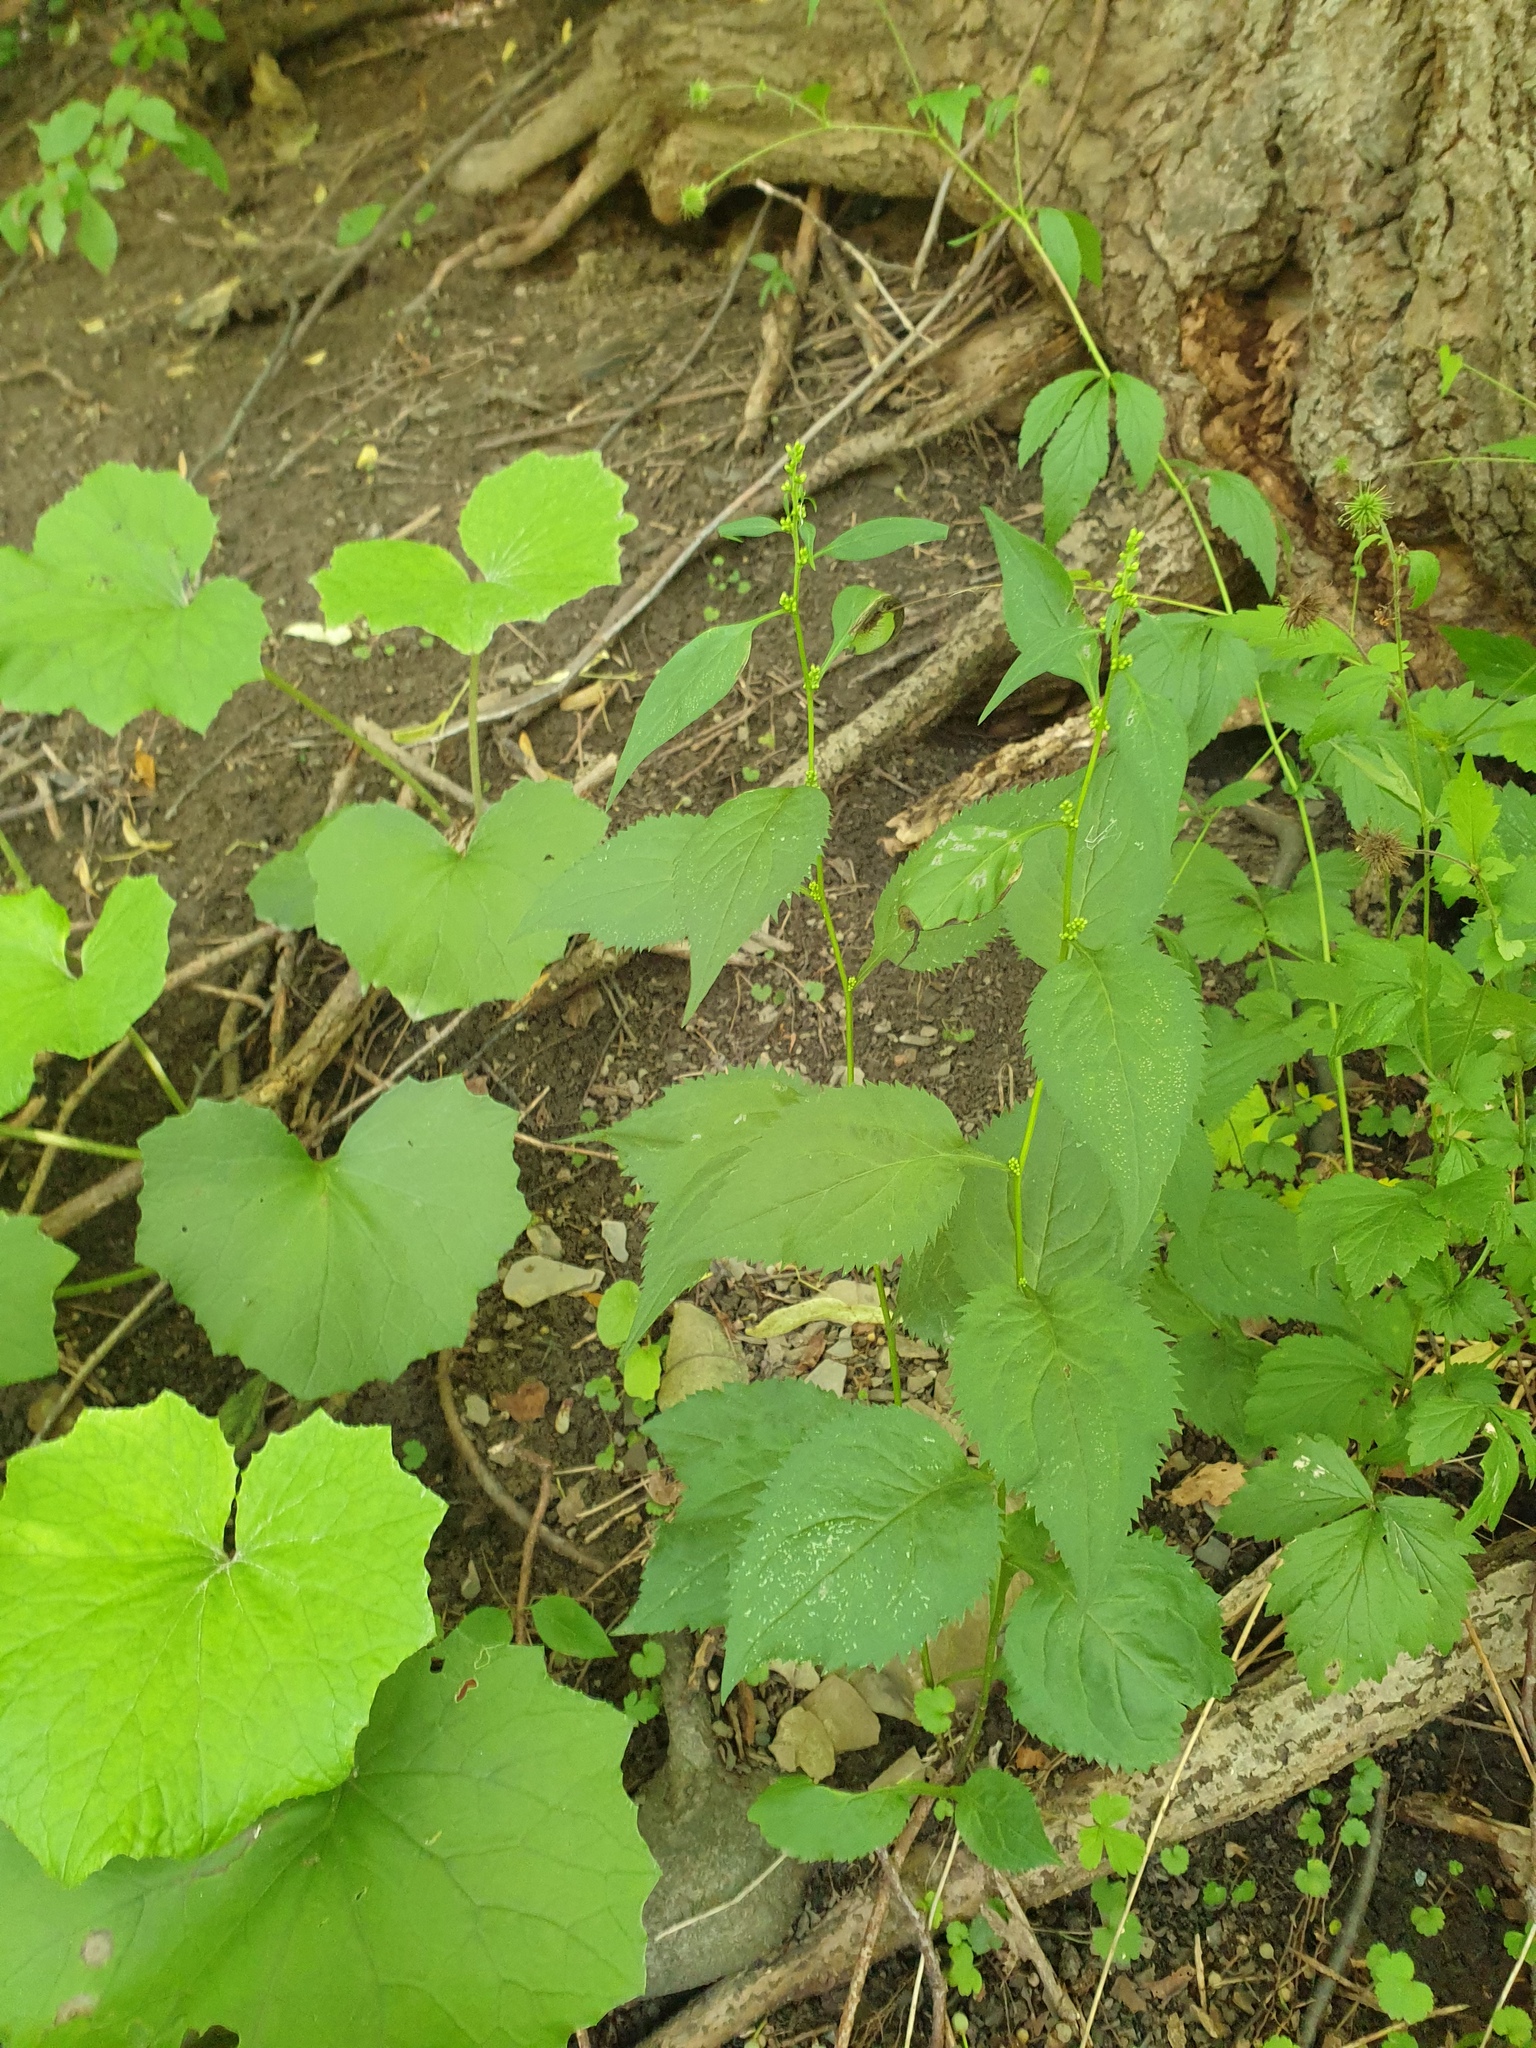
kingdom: Plantae
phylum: Tracheophyta
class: Magnoliopsida
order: Asterales
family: Asteraceae
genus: Solidago
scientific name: Solidago flexicaulis
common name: Zig-zag goldenrod
